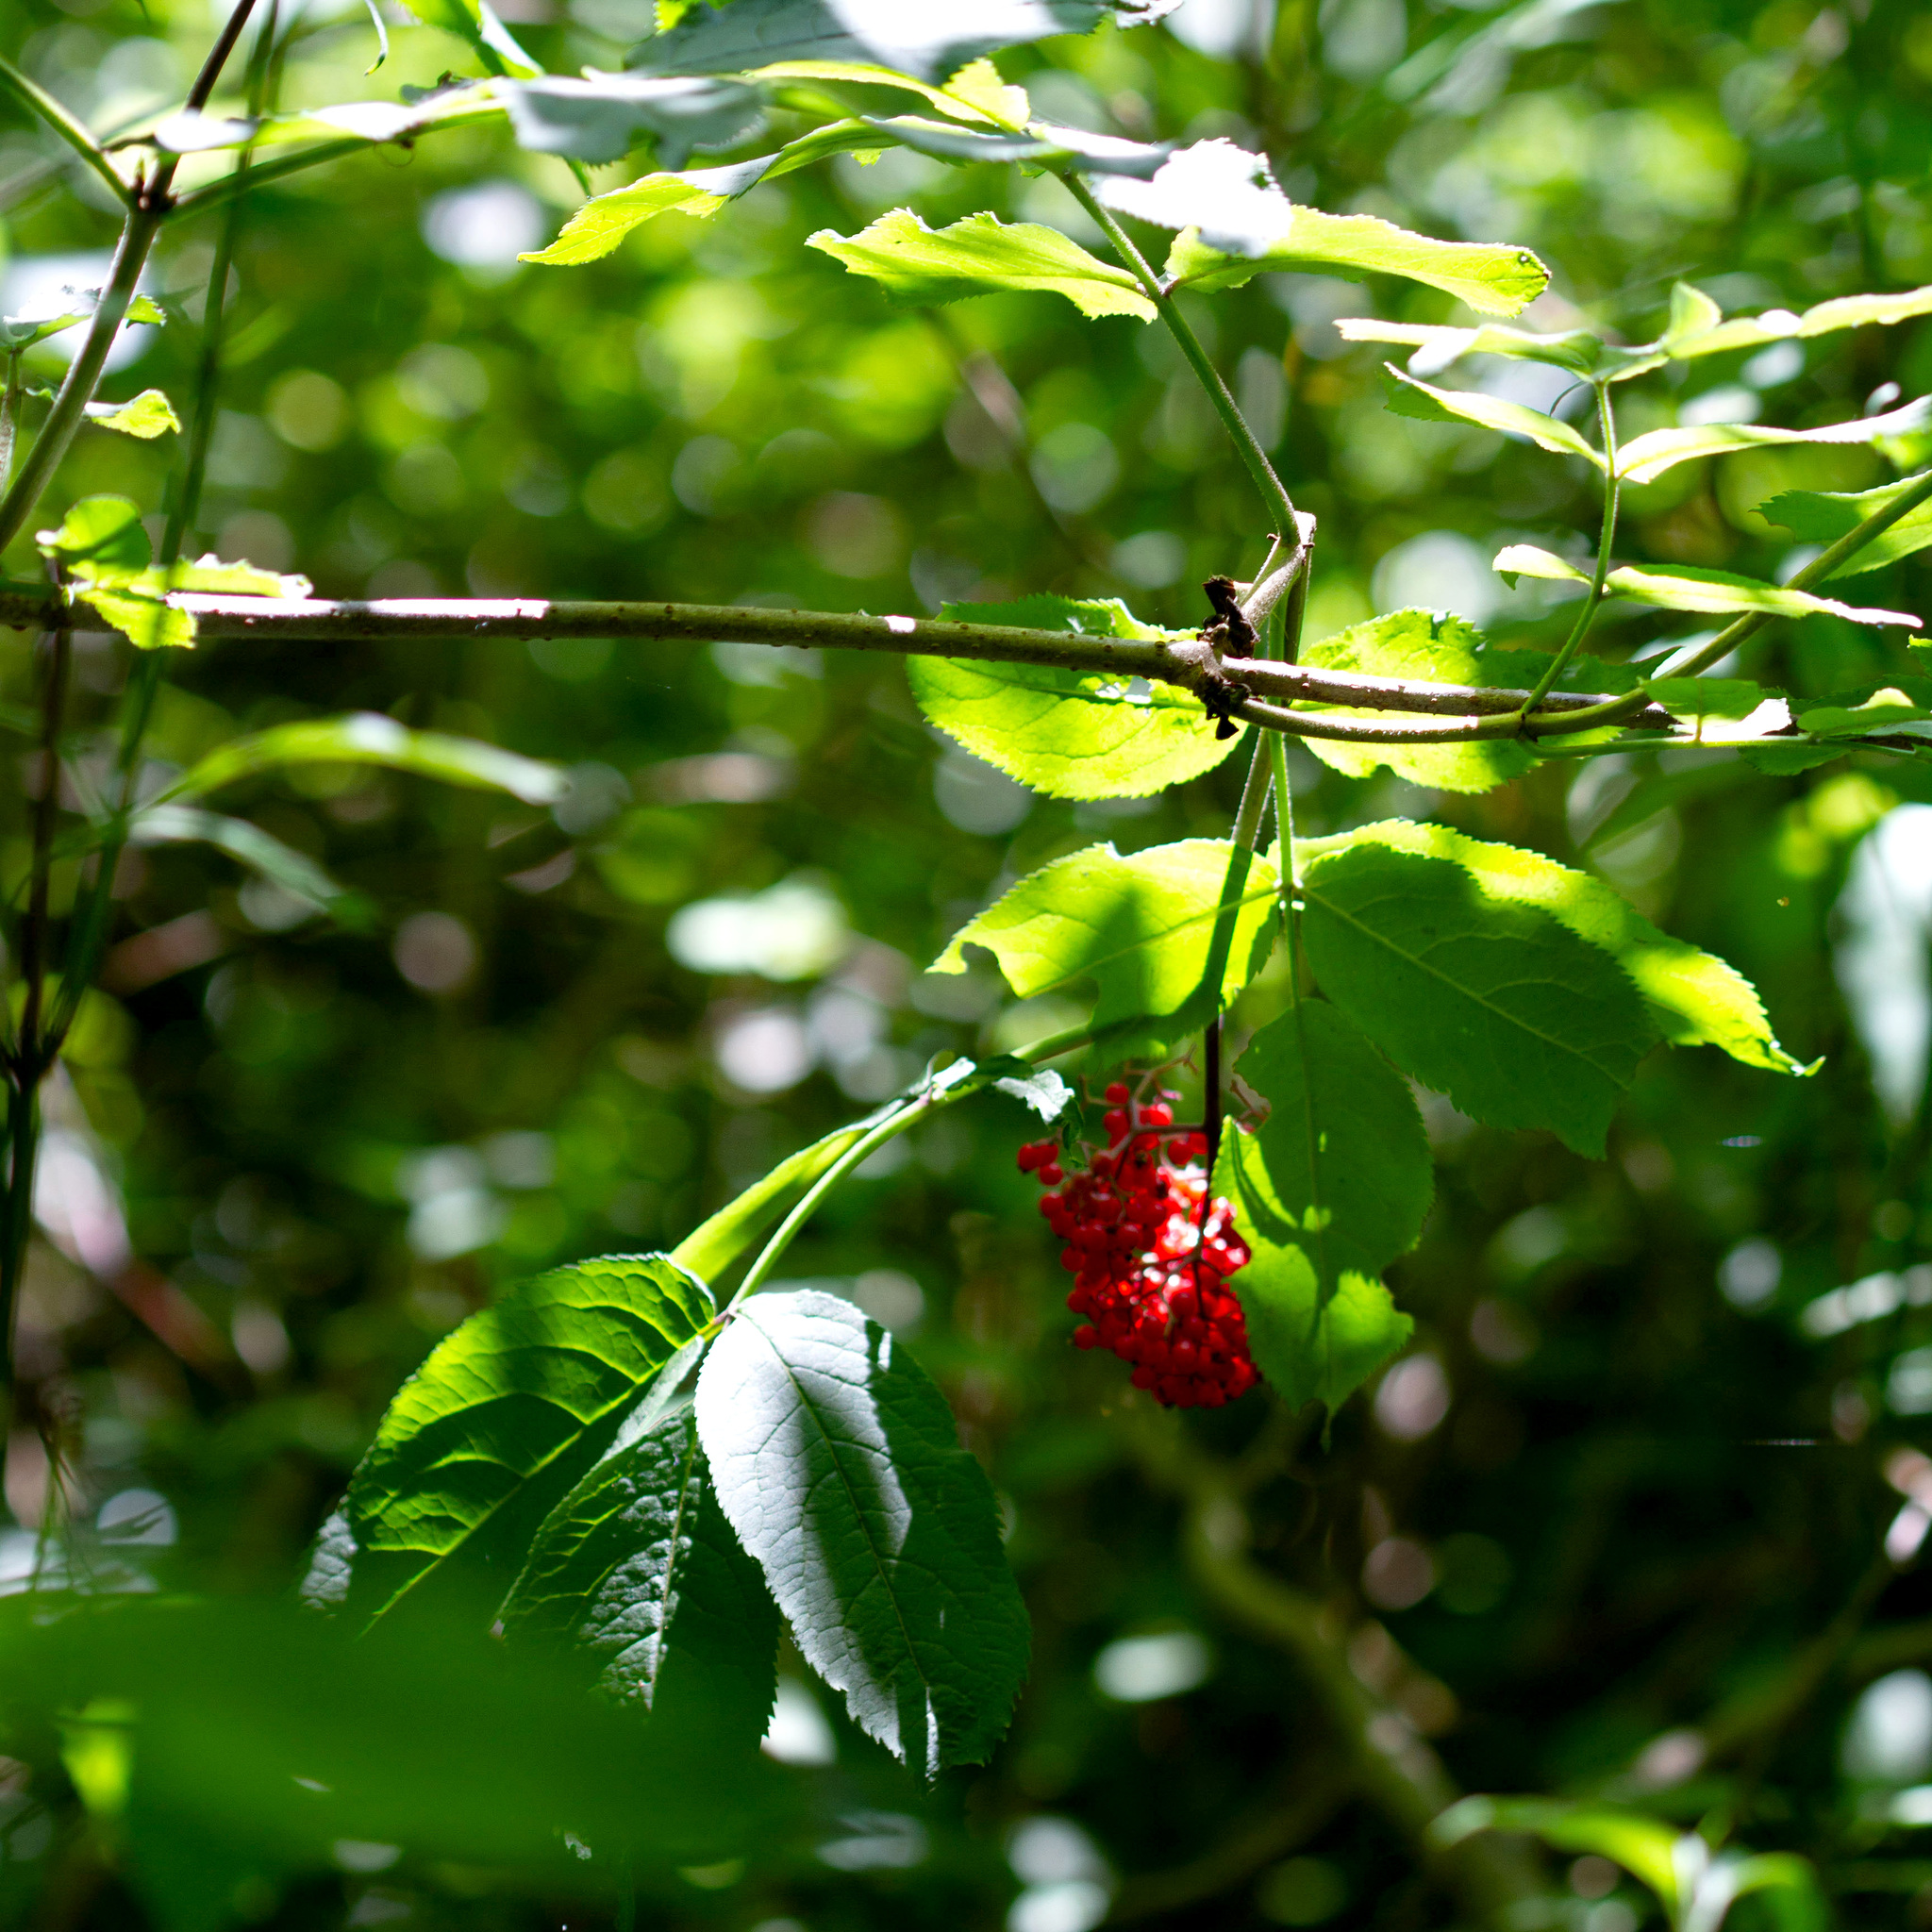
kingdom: Plantae
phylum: Tracheophyta
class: Magnoliopsida
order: Dipsacales
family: Viburnaceae
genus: Sambucus
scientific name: Sambucus racemosa
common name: Red-berried elder
